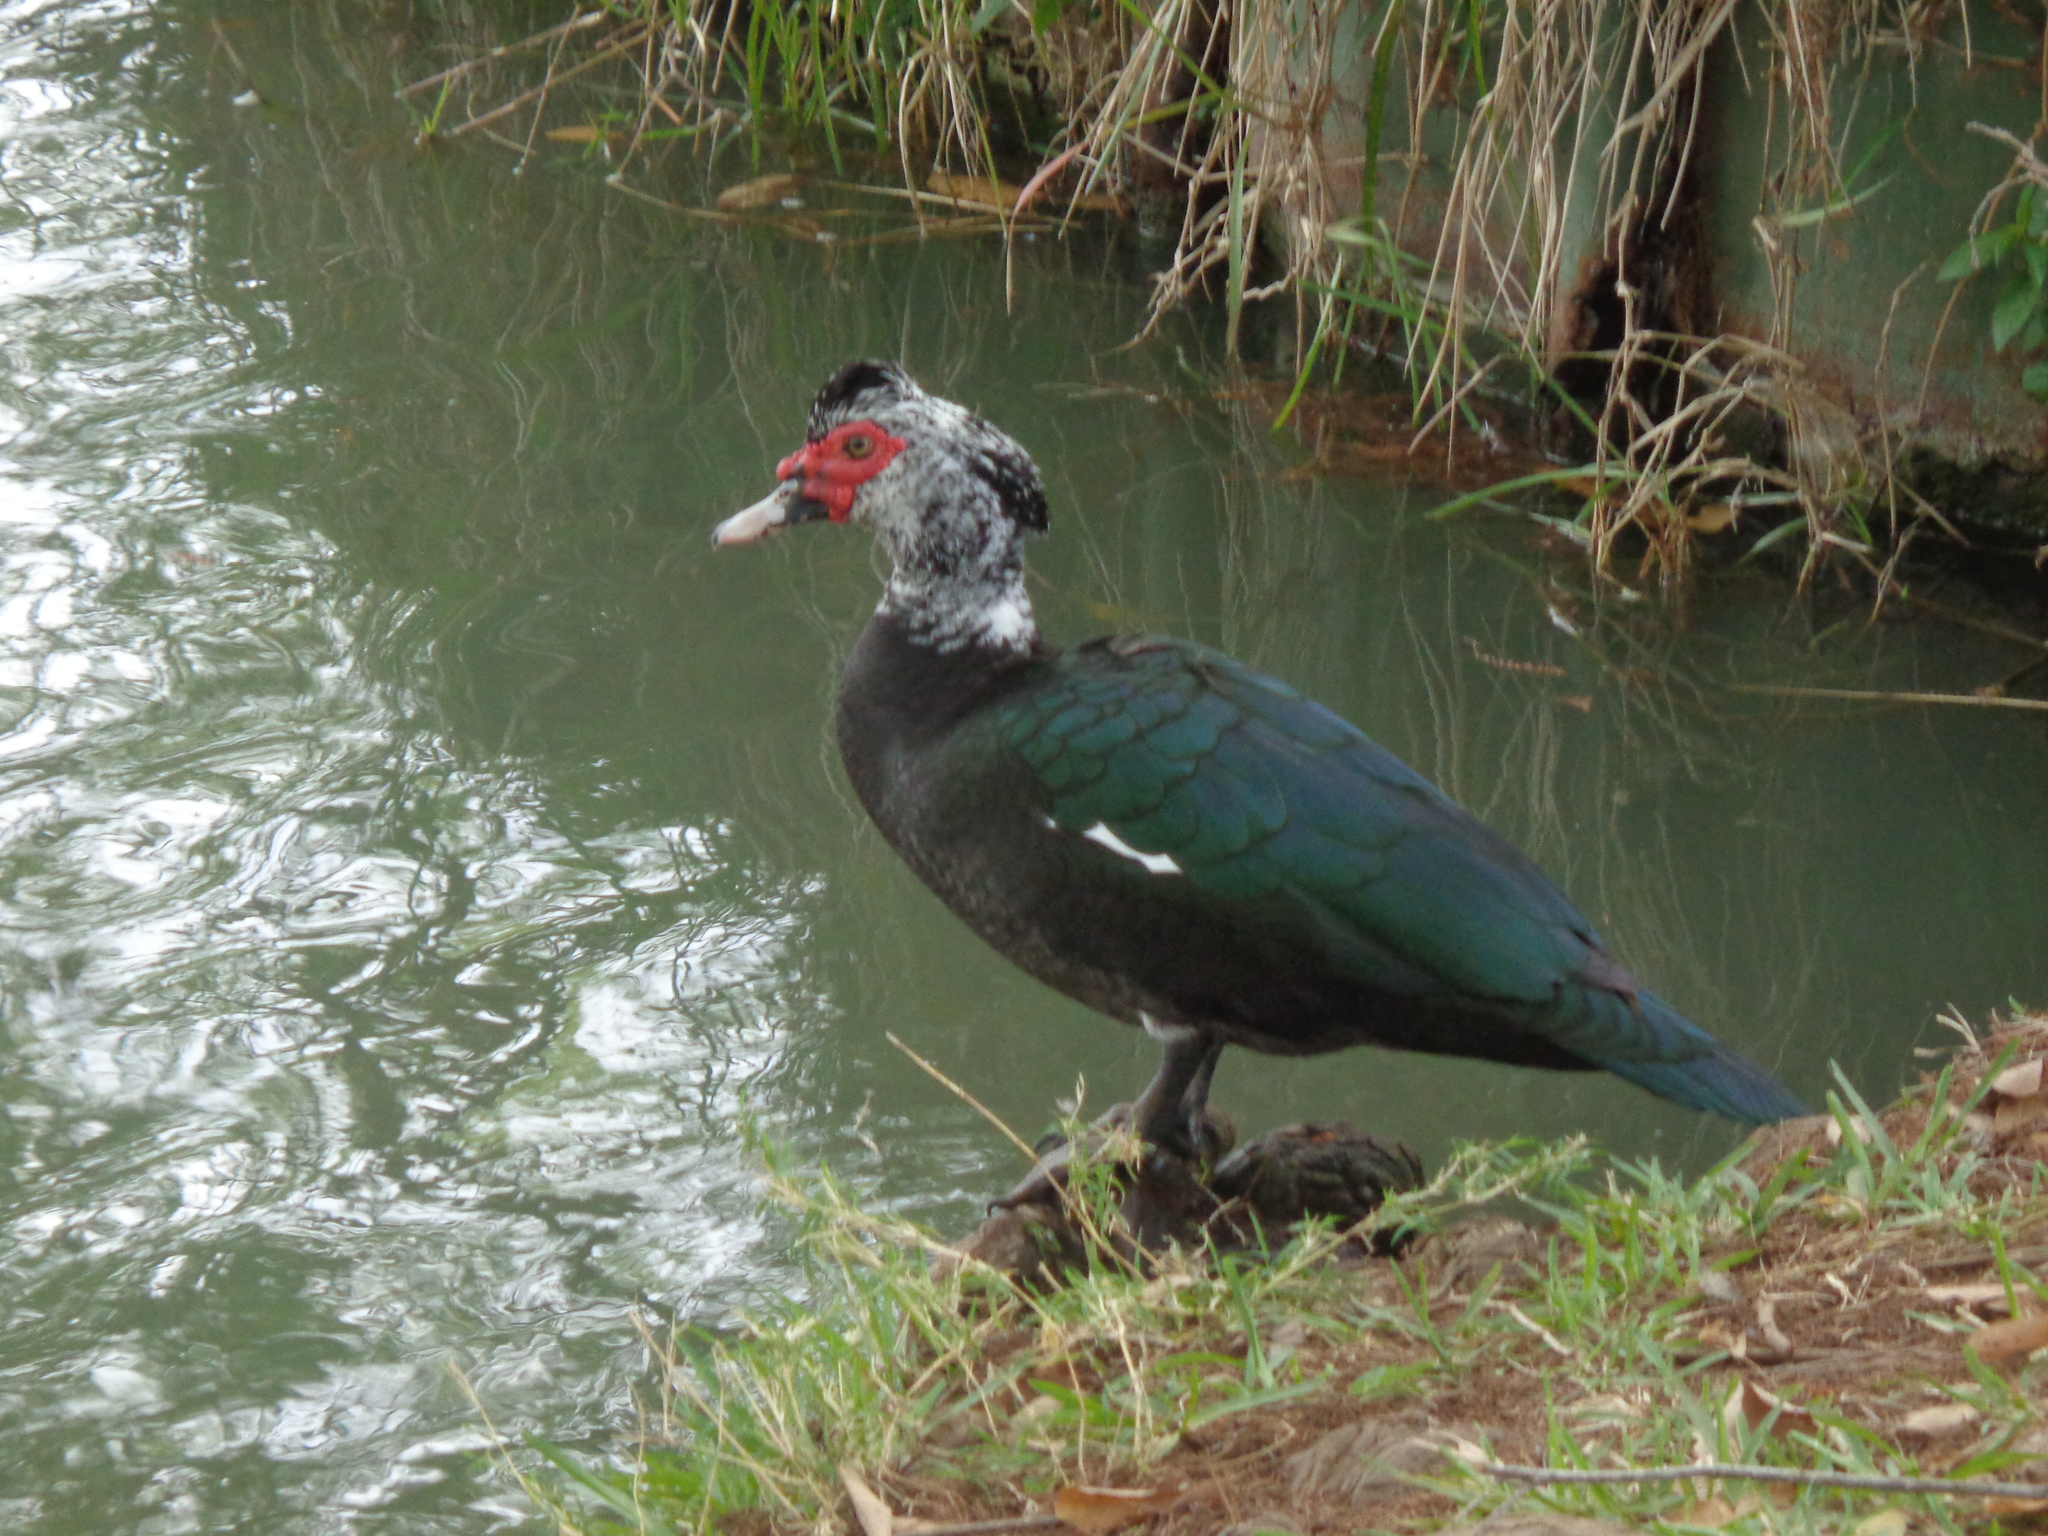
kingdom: Animalia
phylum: Chordata
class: Aves
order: Anseriformes
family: Anatidae
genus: Cairina
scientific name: Cairina moschata
